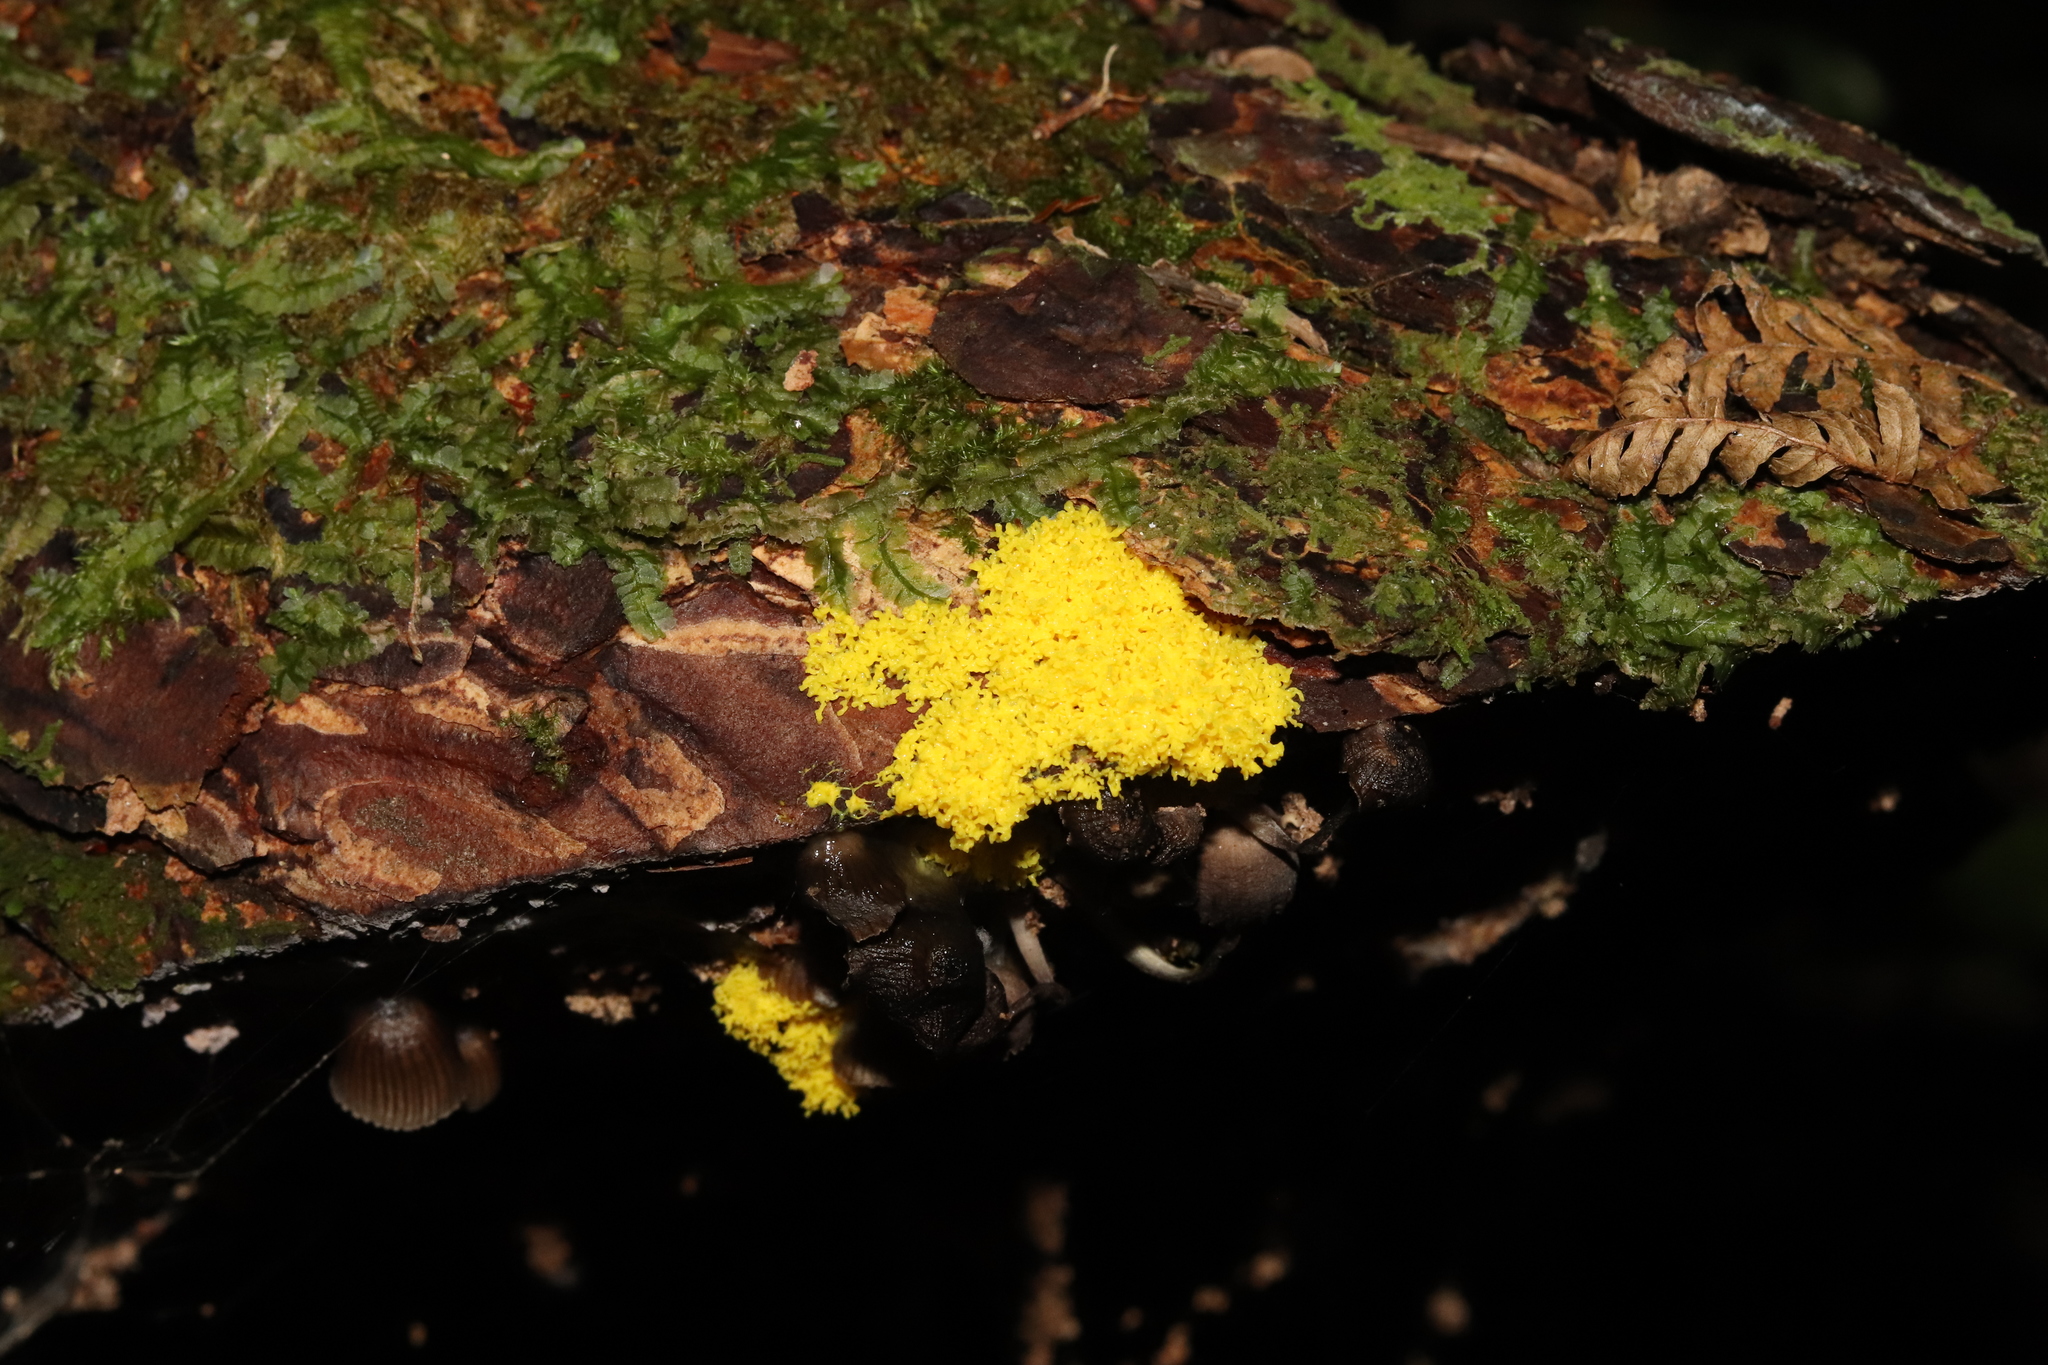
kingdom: Protozoa
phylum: Mycetozoa
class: Myxomycetes
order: Physarales
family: Physaraceae
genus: Fuligo
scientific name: Fuligo septica
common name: Dog vomit slime mold
